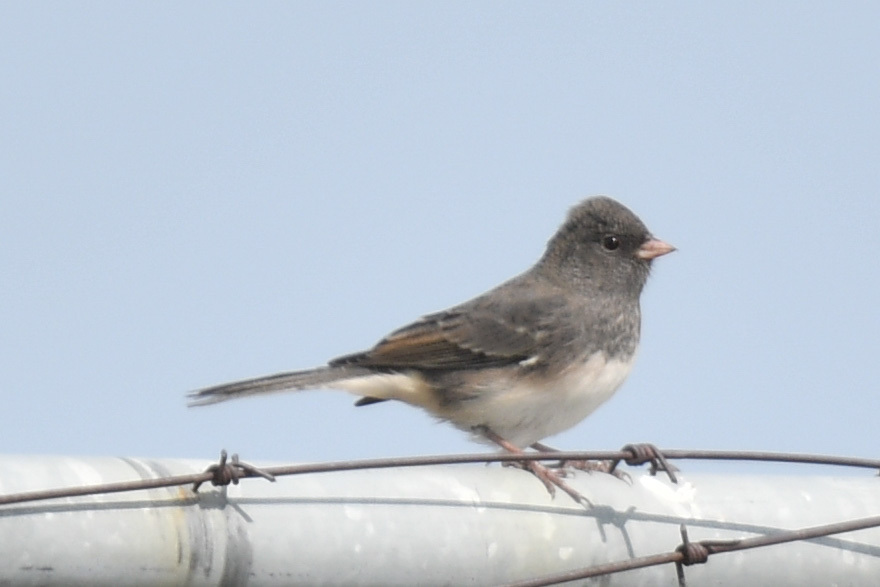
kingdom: Animalia
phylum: Chordata
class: Aves
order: Passeriformes
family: Passerellidae
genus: Junco
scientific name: Junco hyemalis
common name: Dark-eyed junco
